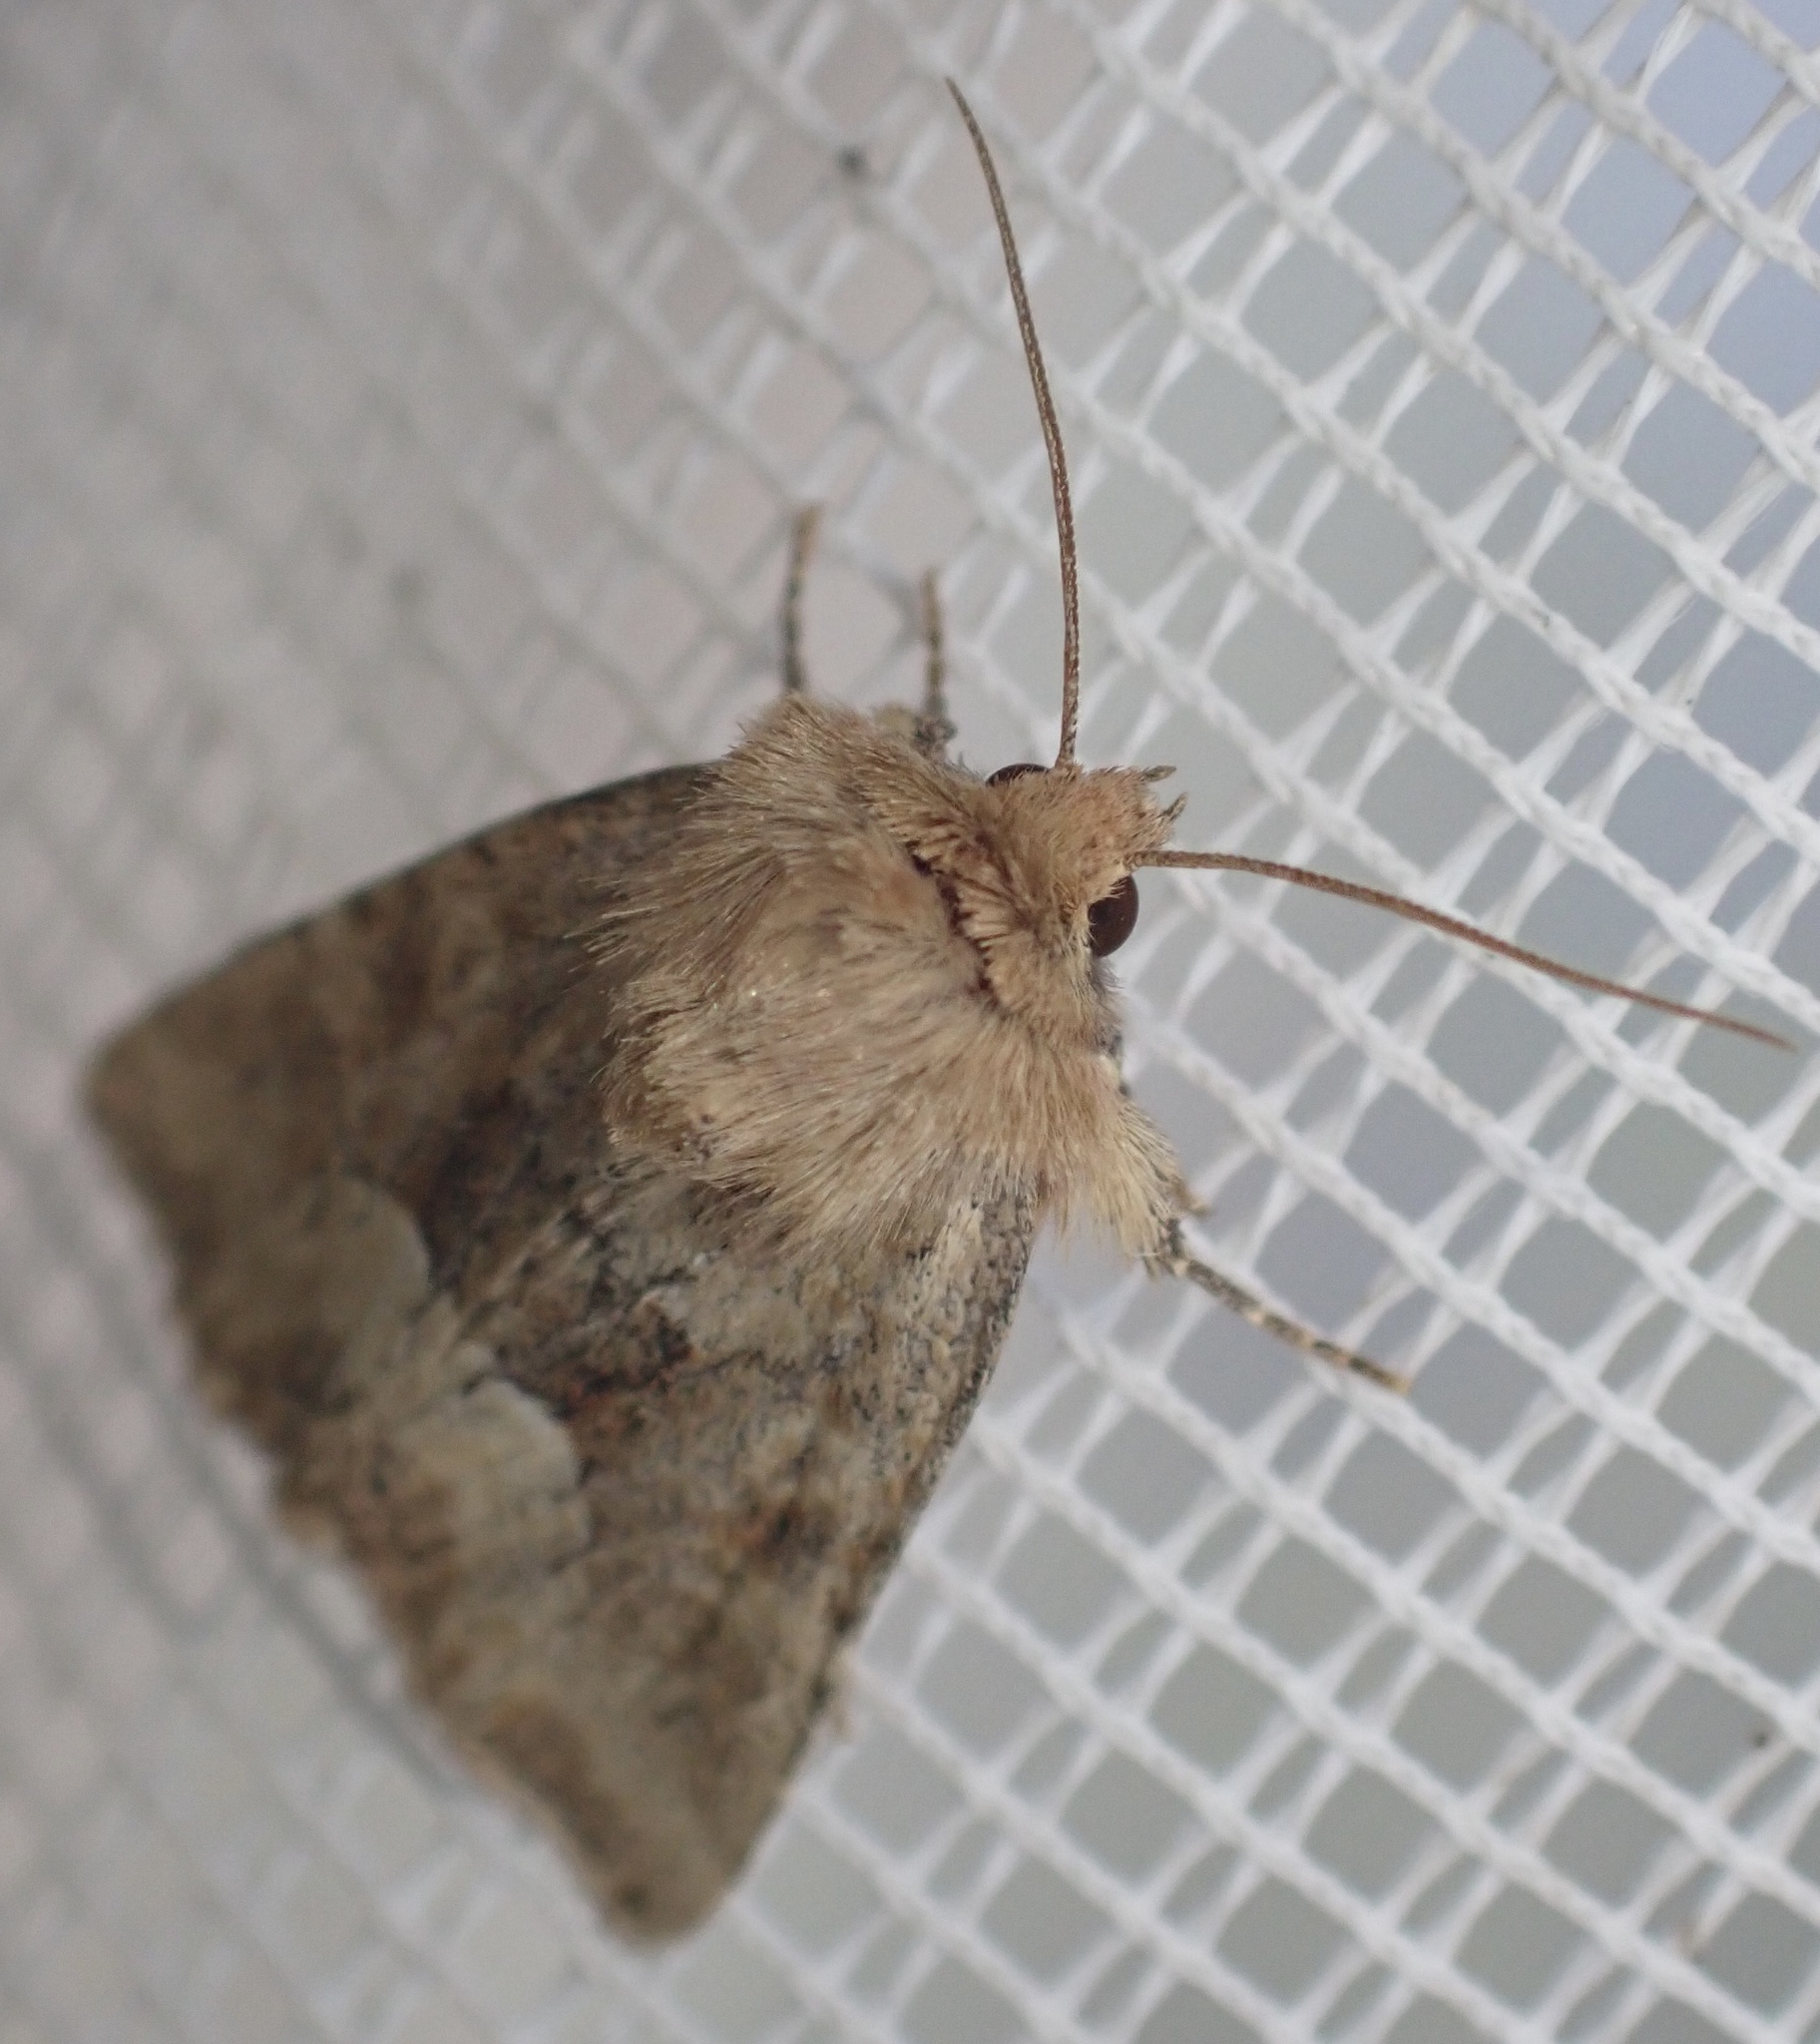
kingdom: Animalia
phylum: Arthropoda
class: Insecta
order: Lepidoptera
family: Noctuidae
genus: Oligia
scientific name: Oligia fasciuncula
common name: Middle-barred minor
